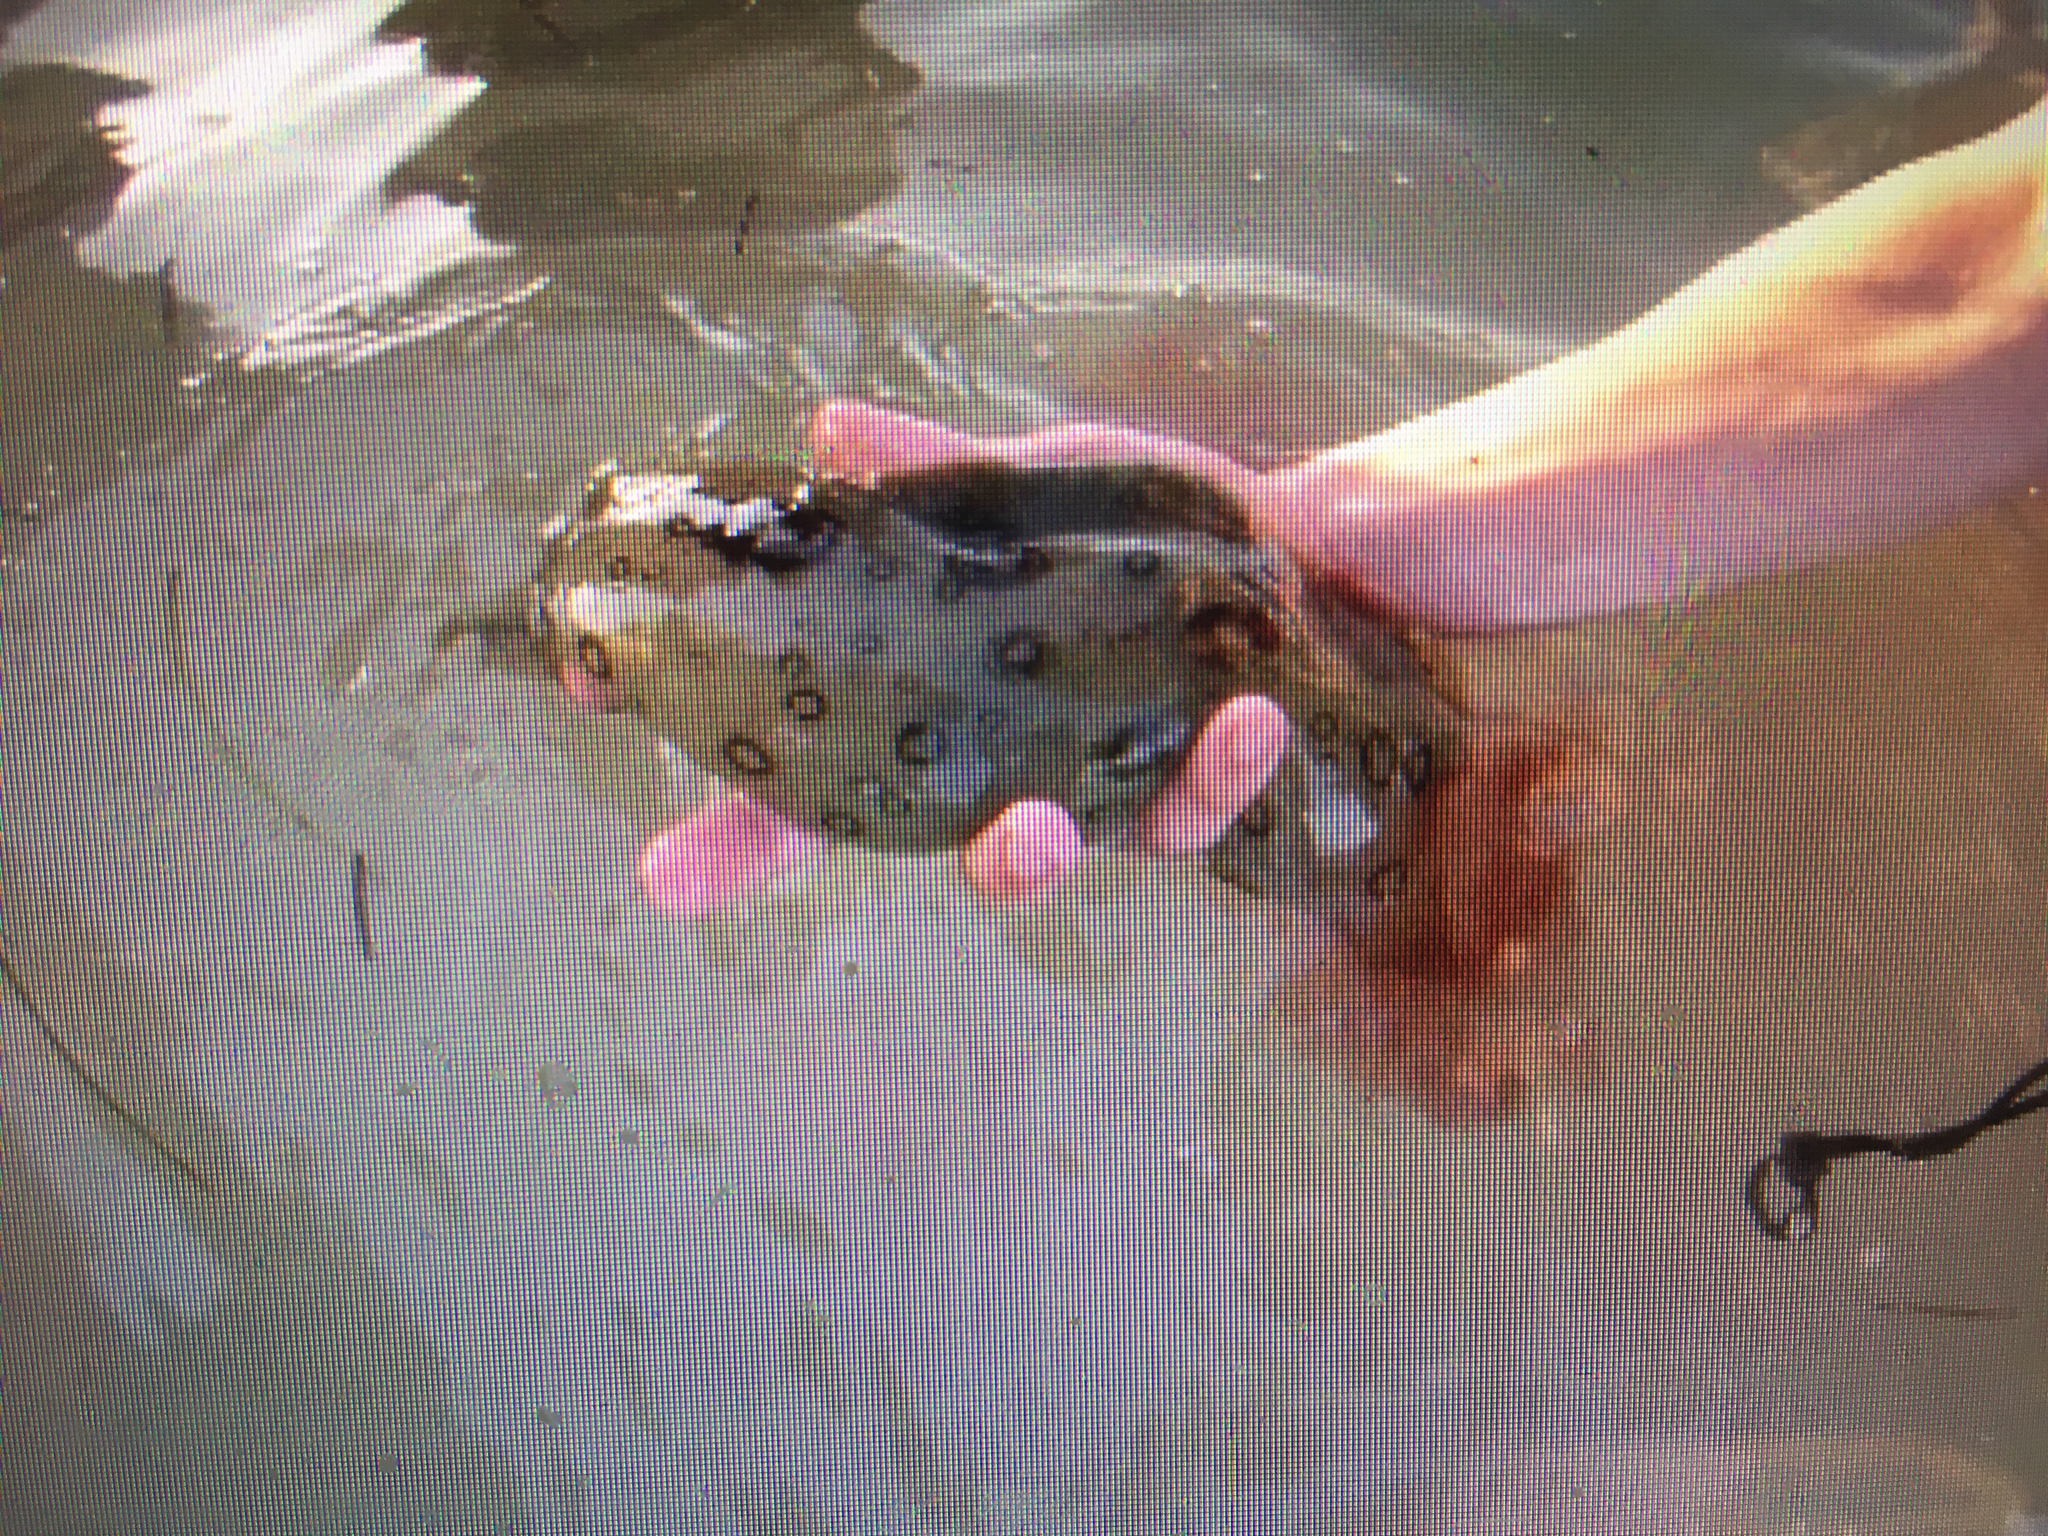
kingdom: Animalia
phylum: Mollusca
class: Gastropoda
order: Aplysiida
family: Aplysiidae
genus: Aplysia
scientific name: Aplysia dactylomela
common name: Large-spotted sea hare
